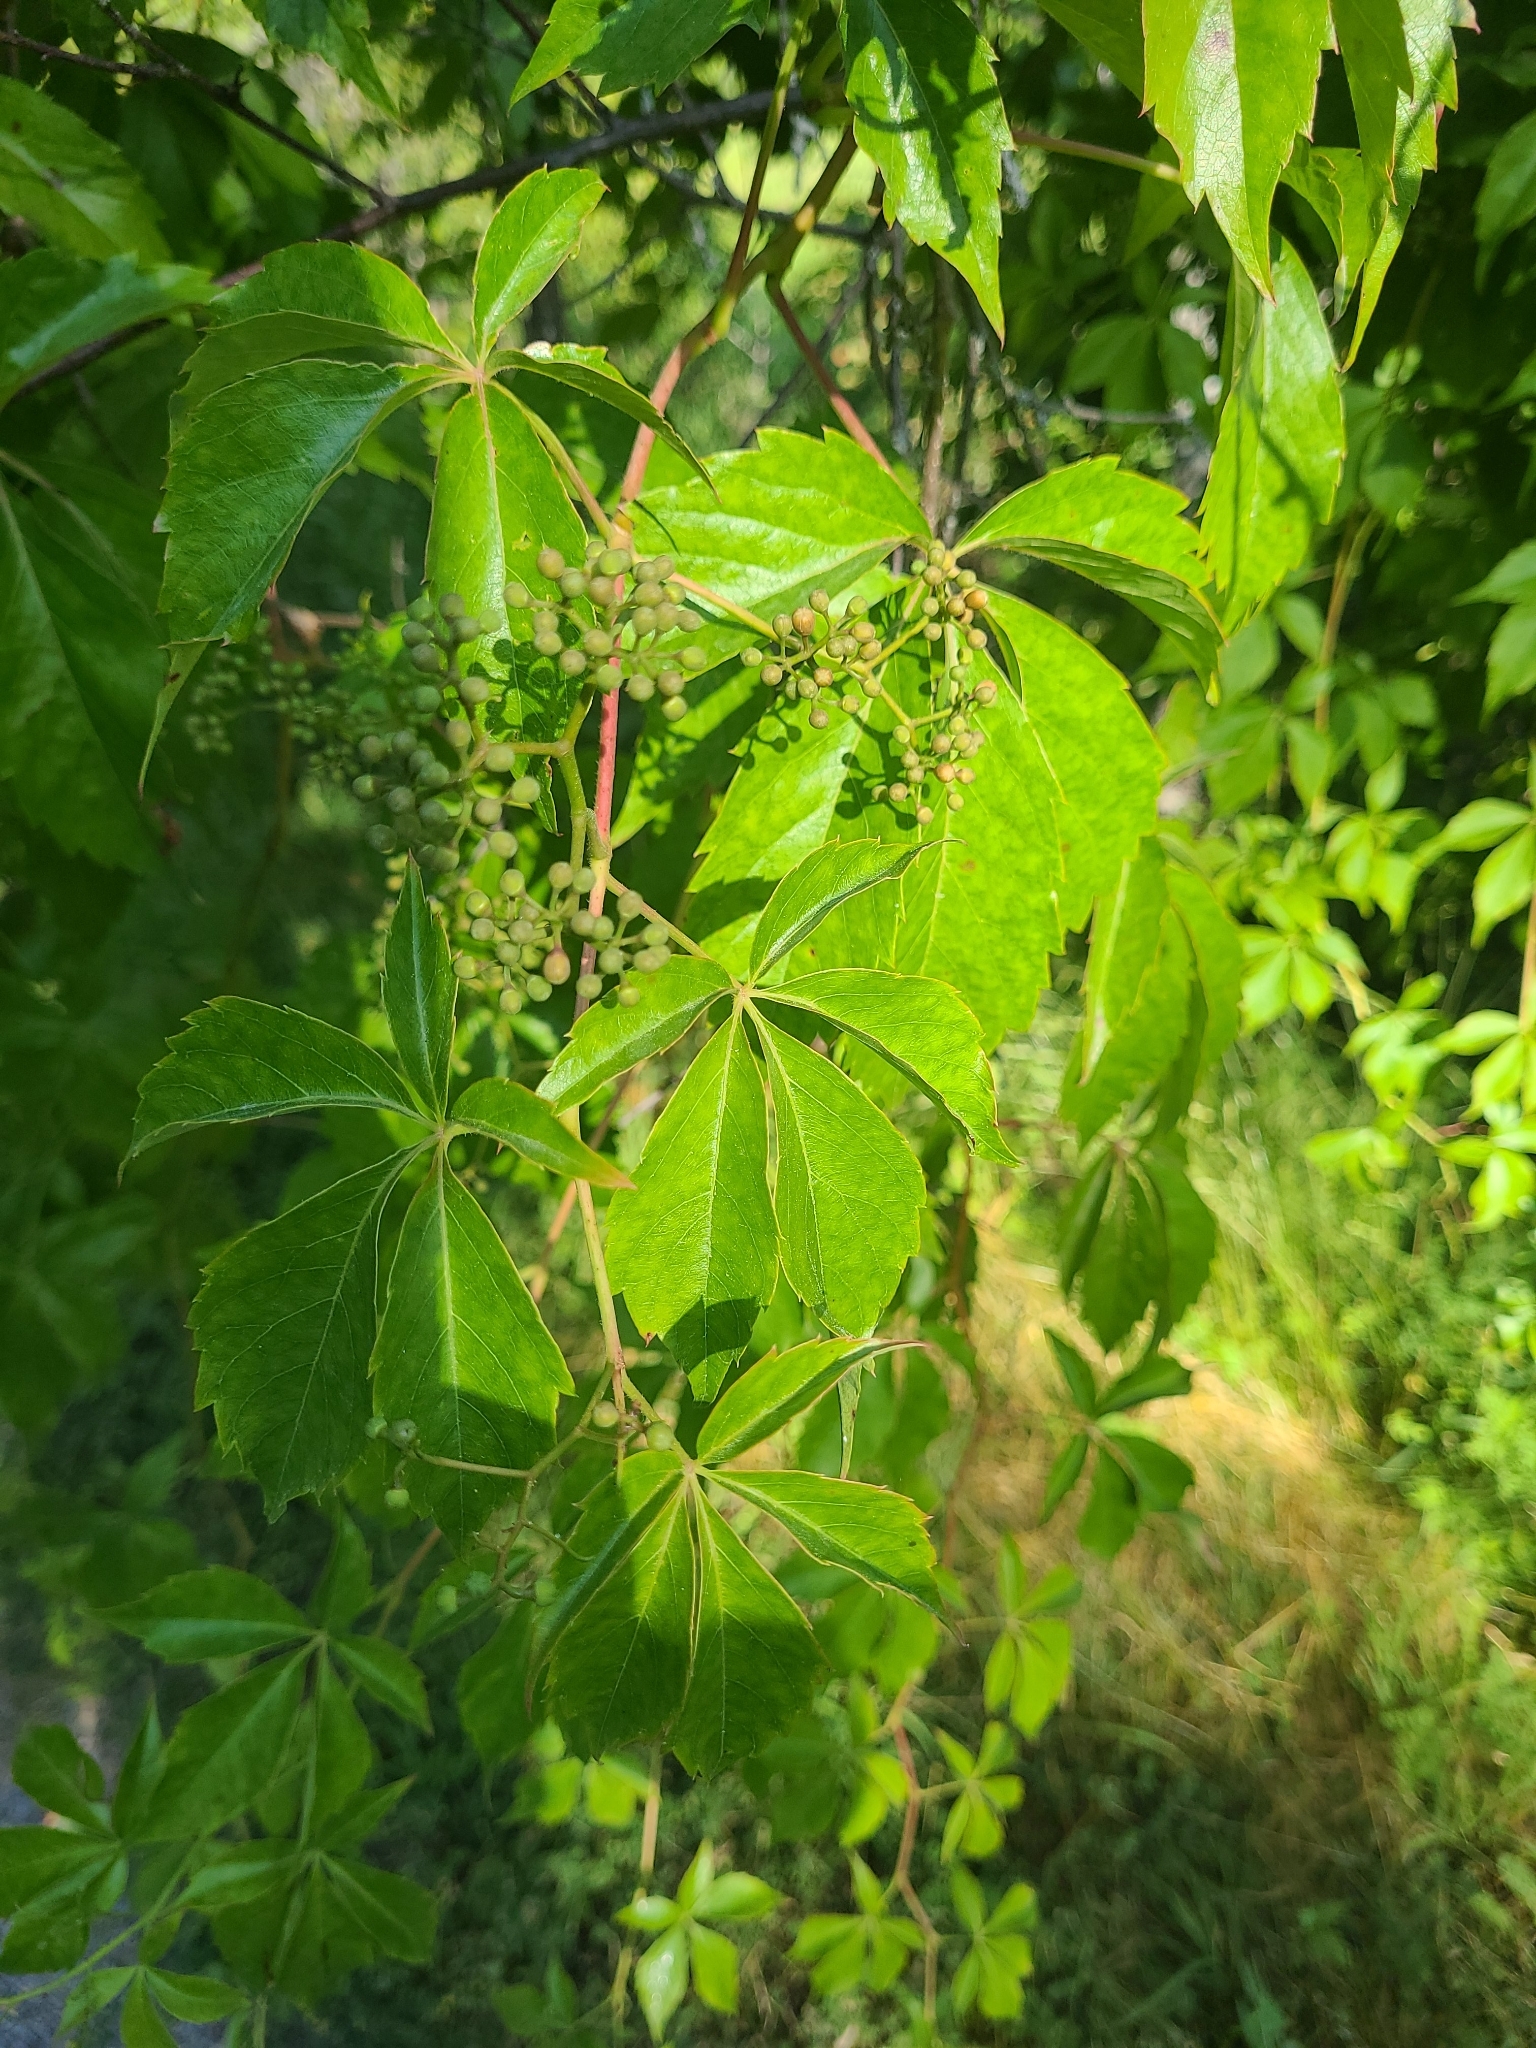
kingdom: Plantae
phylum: Tracheophyta
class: Magnoliopsida
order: Vitales
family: Vitaceae
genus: Parthenocissus
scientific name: Parthenocissus quinquefolia
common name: Virginia-creeper
